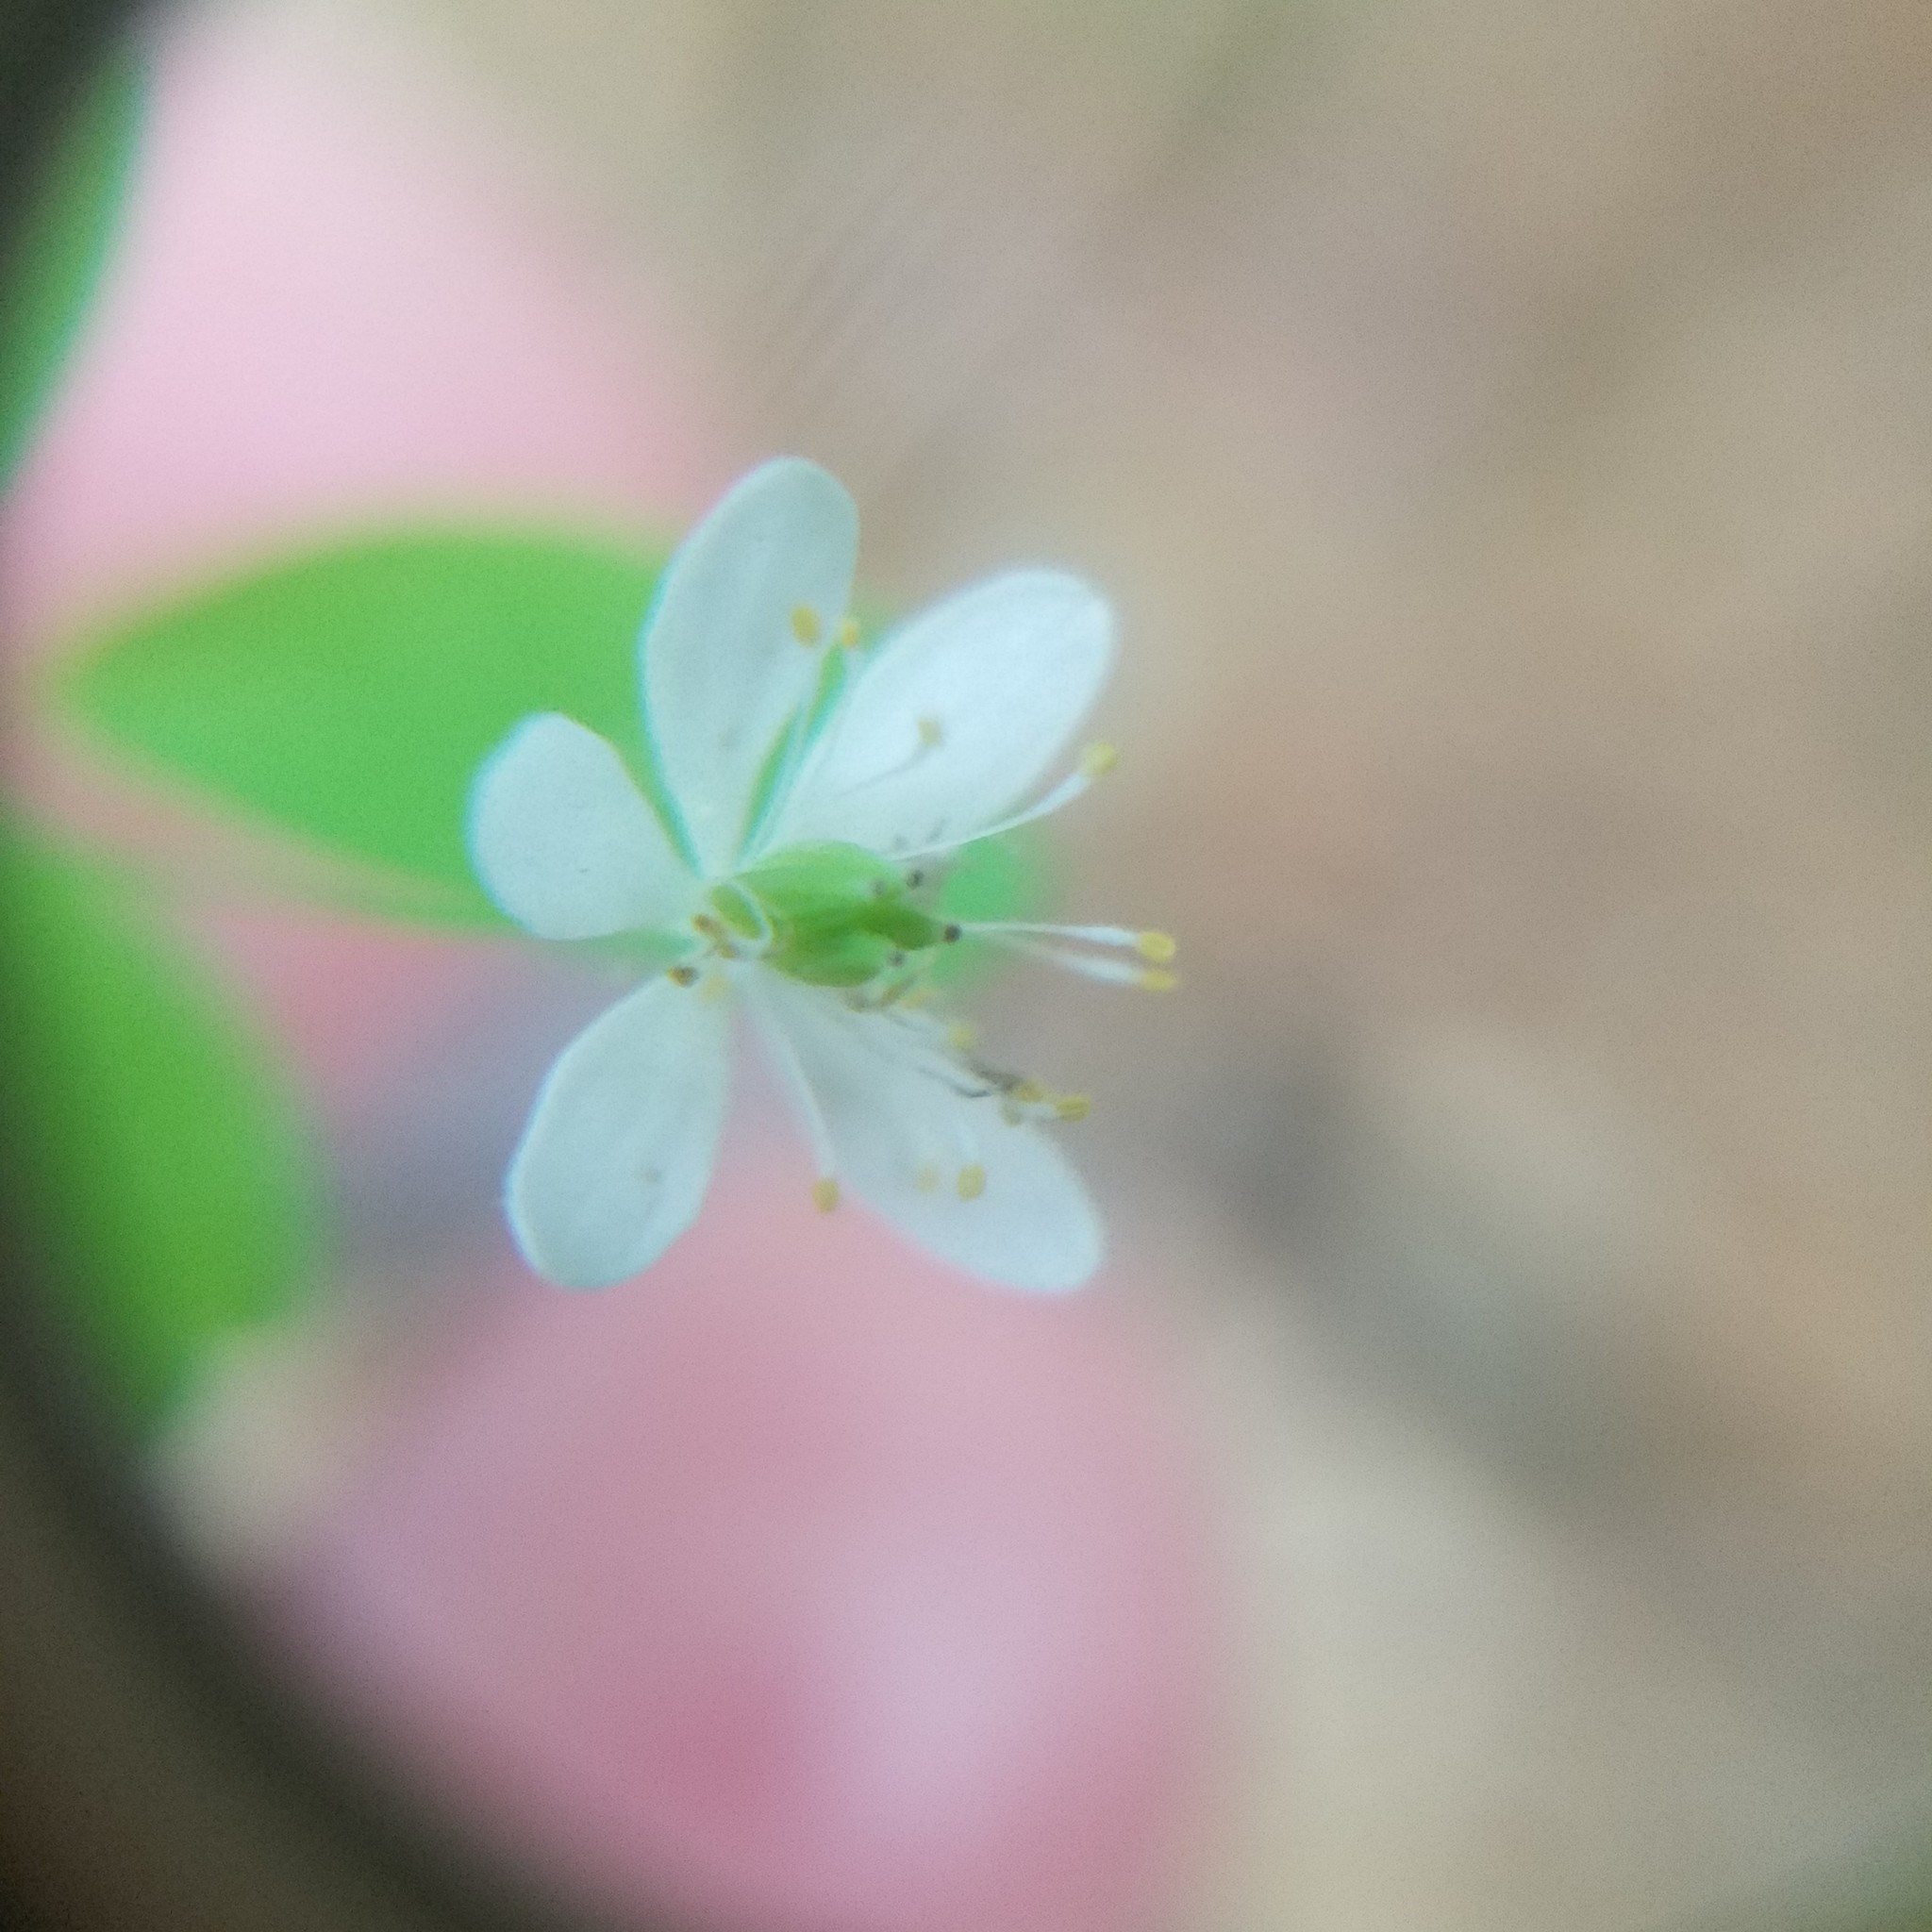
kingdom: Plantae
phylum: Tracheophyta
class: Magnoliopsida
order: Ranunculales
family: Ranunculaceae
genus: Thalictrum
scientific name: Thalictrum thalictroides
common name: Rue-anemone
